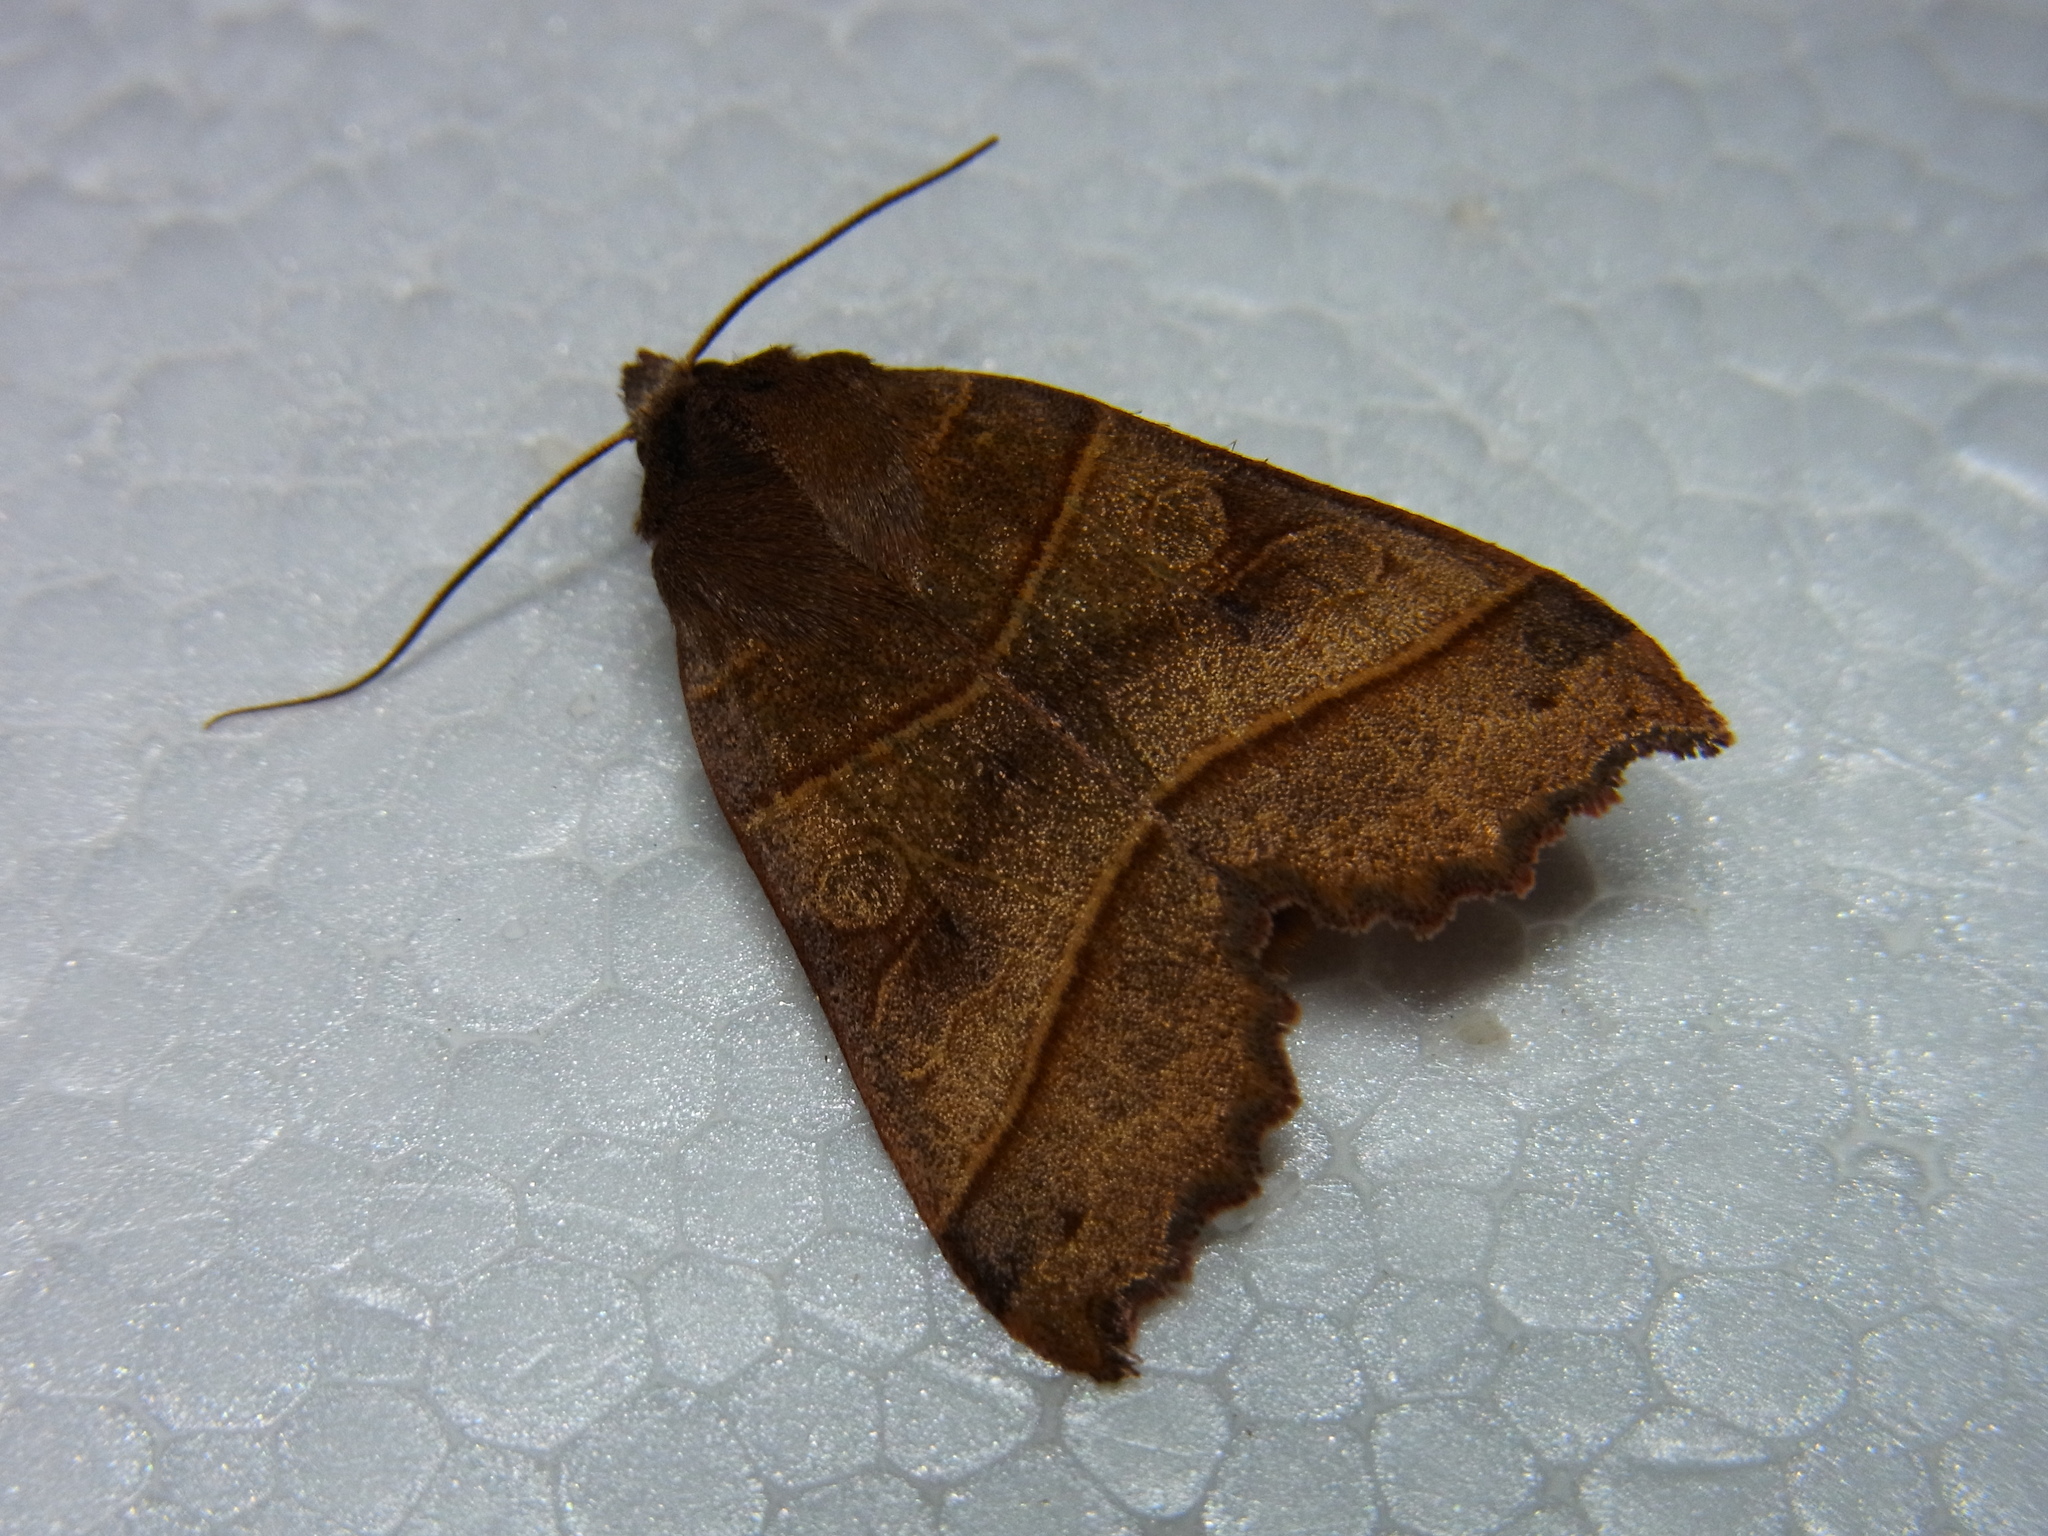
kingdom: Animalia
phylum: Arthropoda
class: Insecta
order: Lepidoptera
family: Noctuidae
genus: Telorta
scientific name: Telorta acuminata
